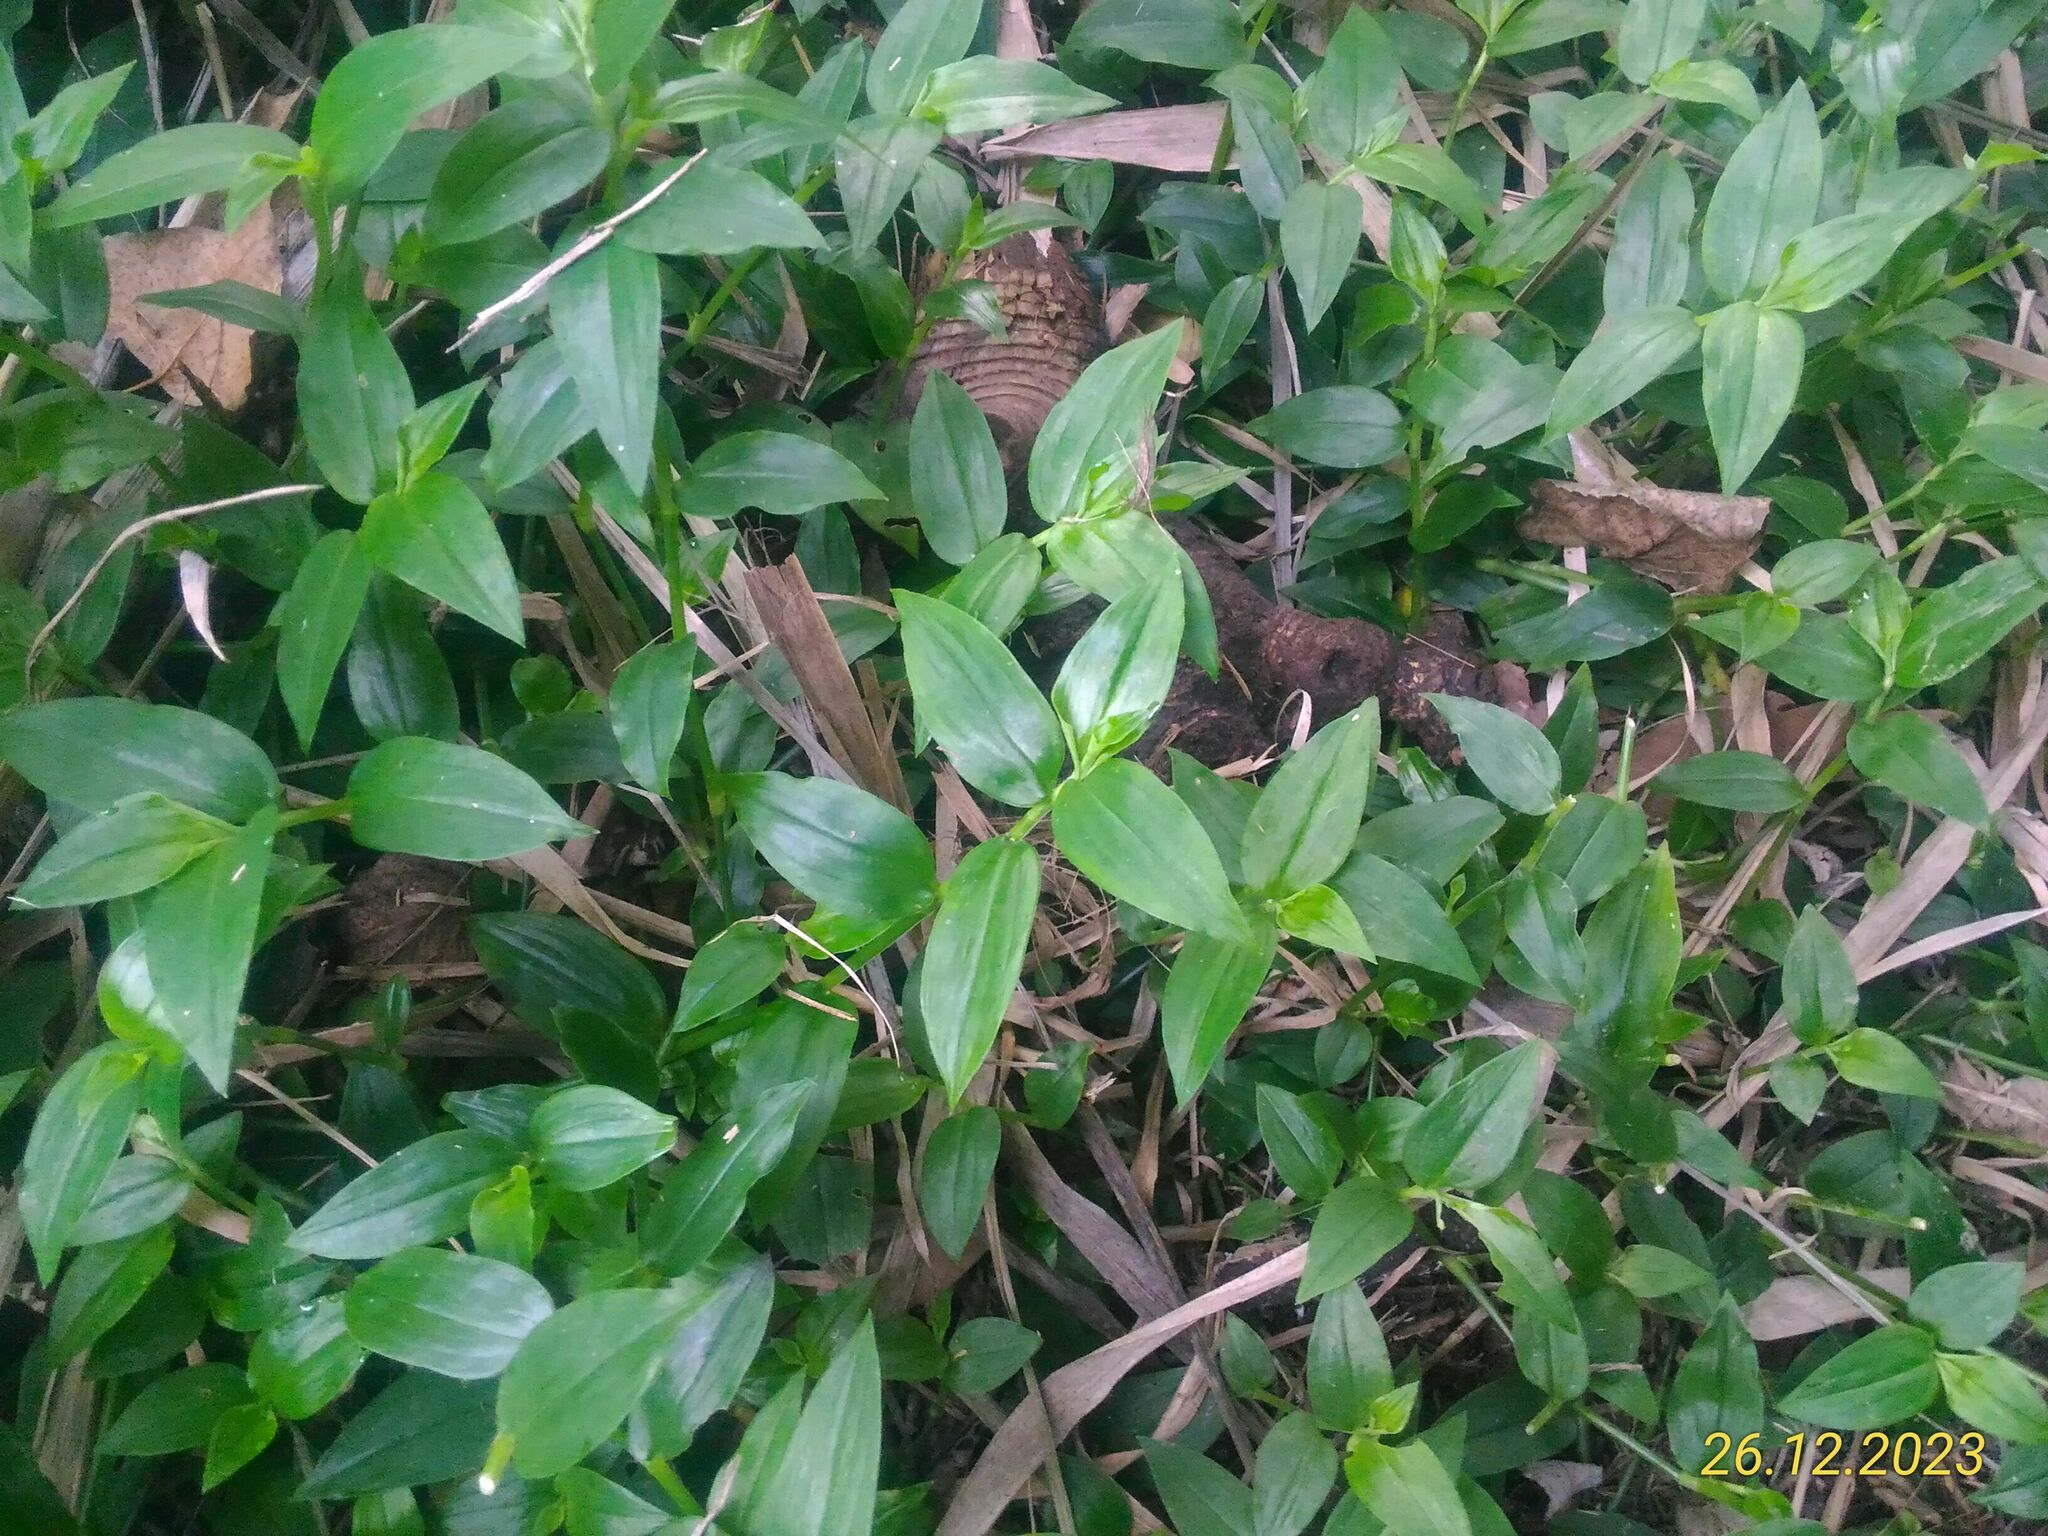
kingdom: Plantae
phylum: Tracheophyta
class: Liliopsida
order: Commelinales
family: Commelinaceae
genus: Tradescantia
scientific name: Tradescantia fluminensis
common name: Wandering-jew
